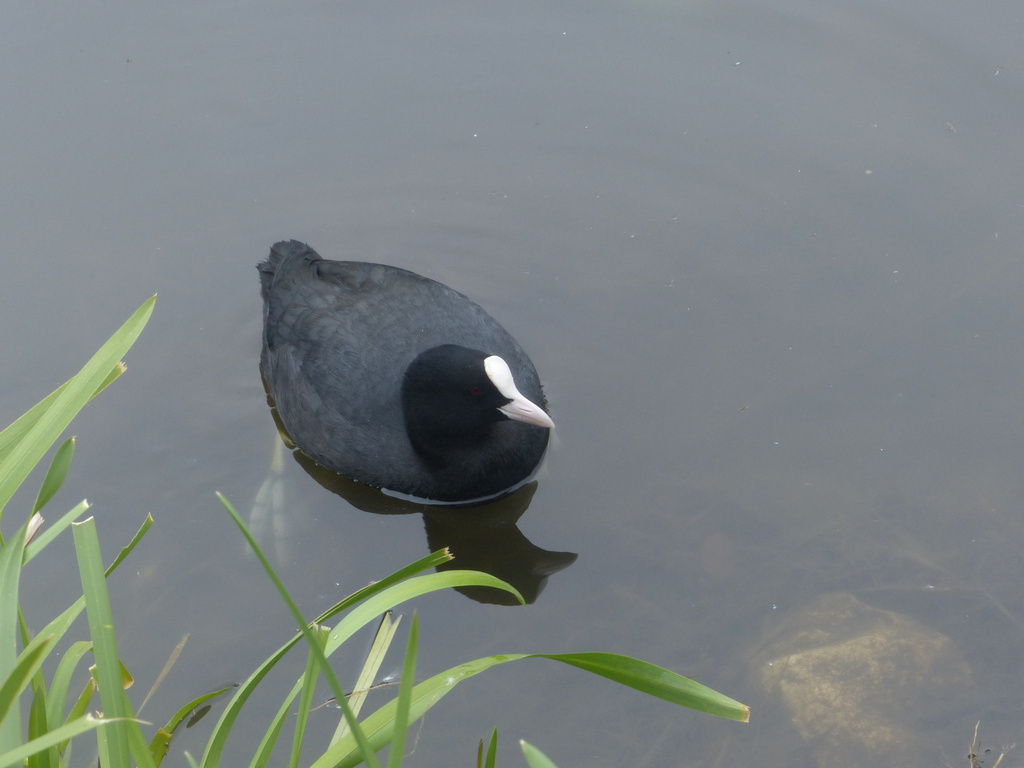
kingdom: Animalia
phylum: Chordata
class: Aves
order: Gruiformes
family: Rallidae
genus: Fulica
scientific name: Fulica atra
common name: Eurasian coot
